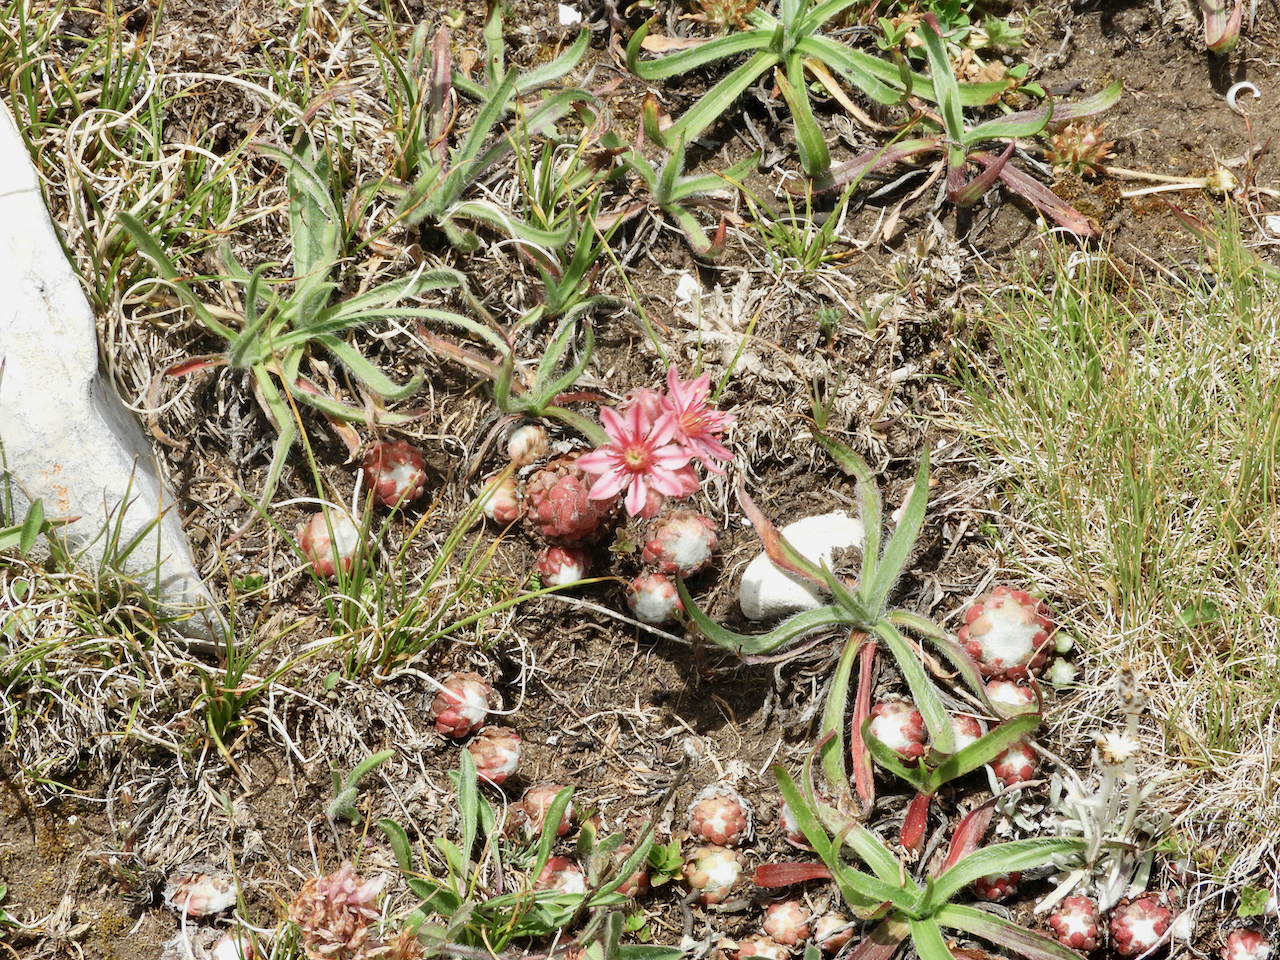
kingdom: Plantae
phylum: Tracheophyta
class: Magnoliopsida
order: Saxifragales
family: Crassulaceae
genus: Sempervivum
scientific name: Sempervivum arachnoideum
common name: Cobweb house-leek
